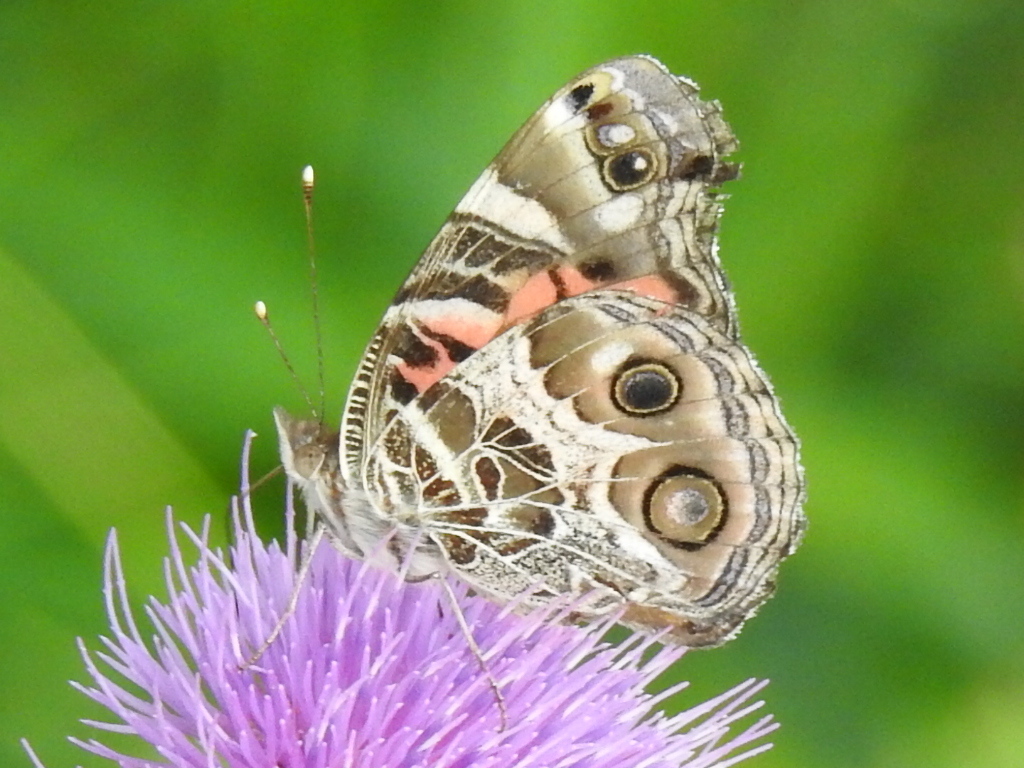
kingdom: Animalia
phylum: Arthropoda
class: Insecta
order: Lepidoptera
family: Nymphalidae
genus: Vanessa
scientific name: Vanessa virginiensis
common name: American lady
